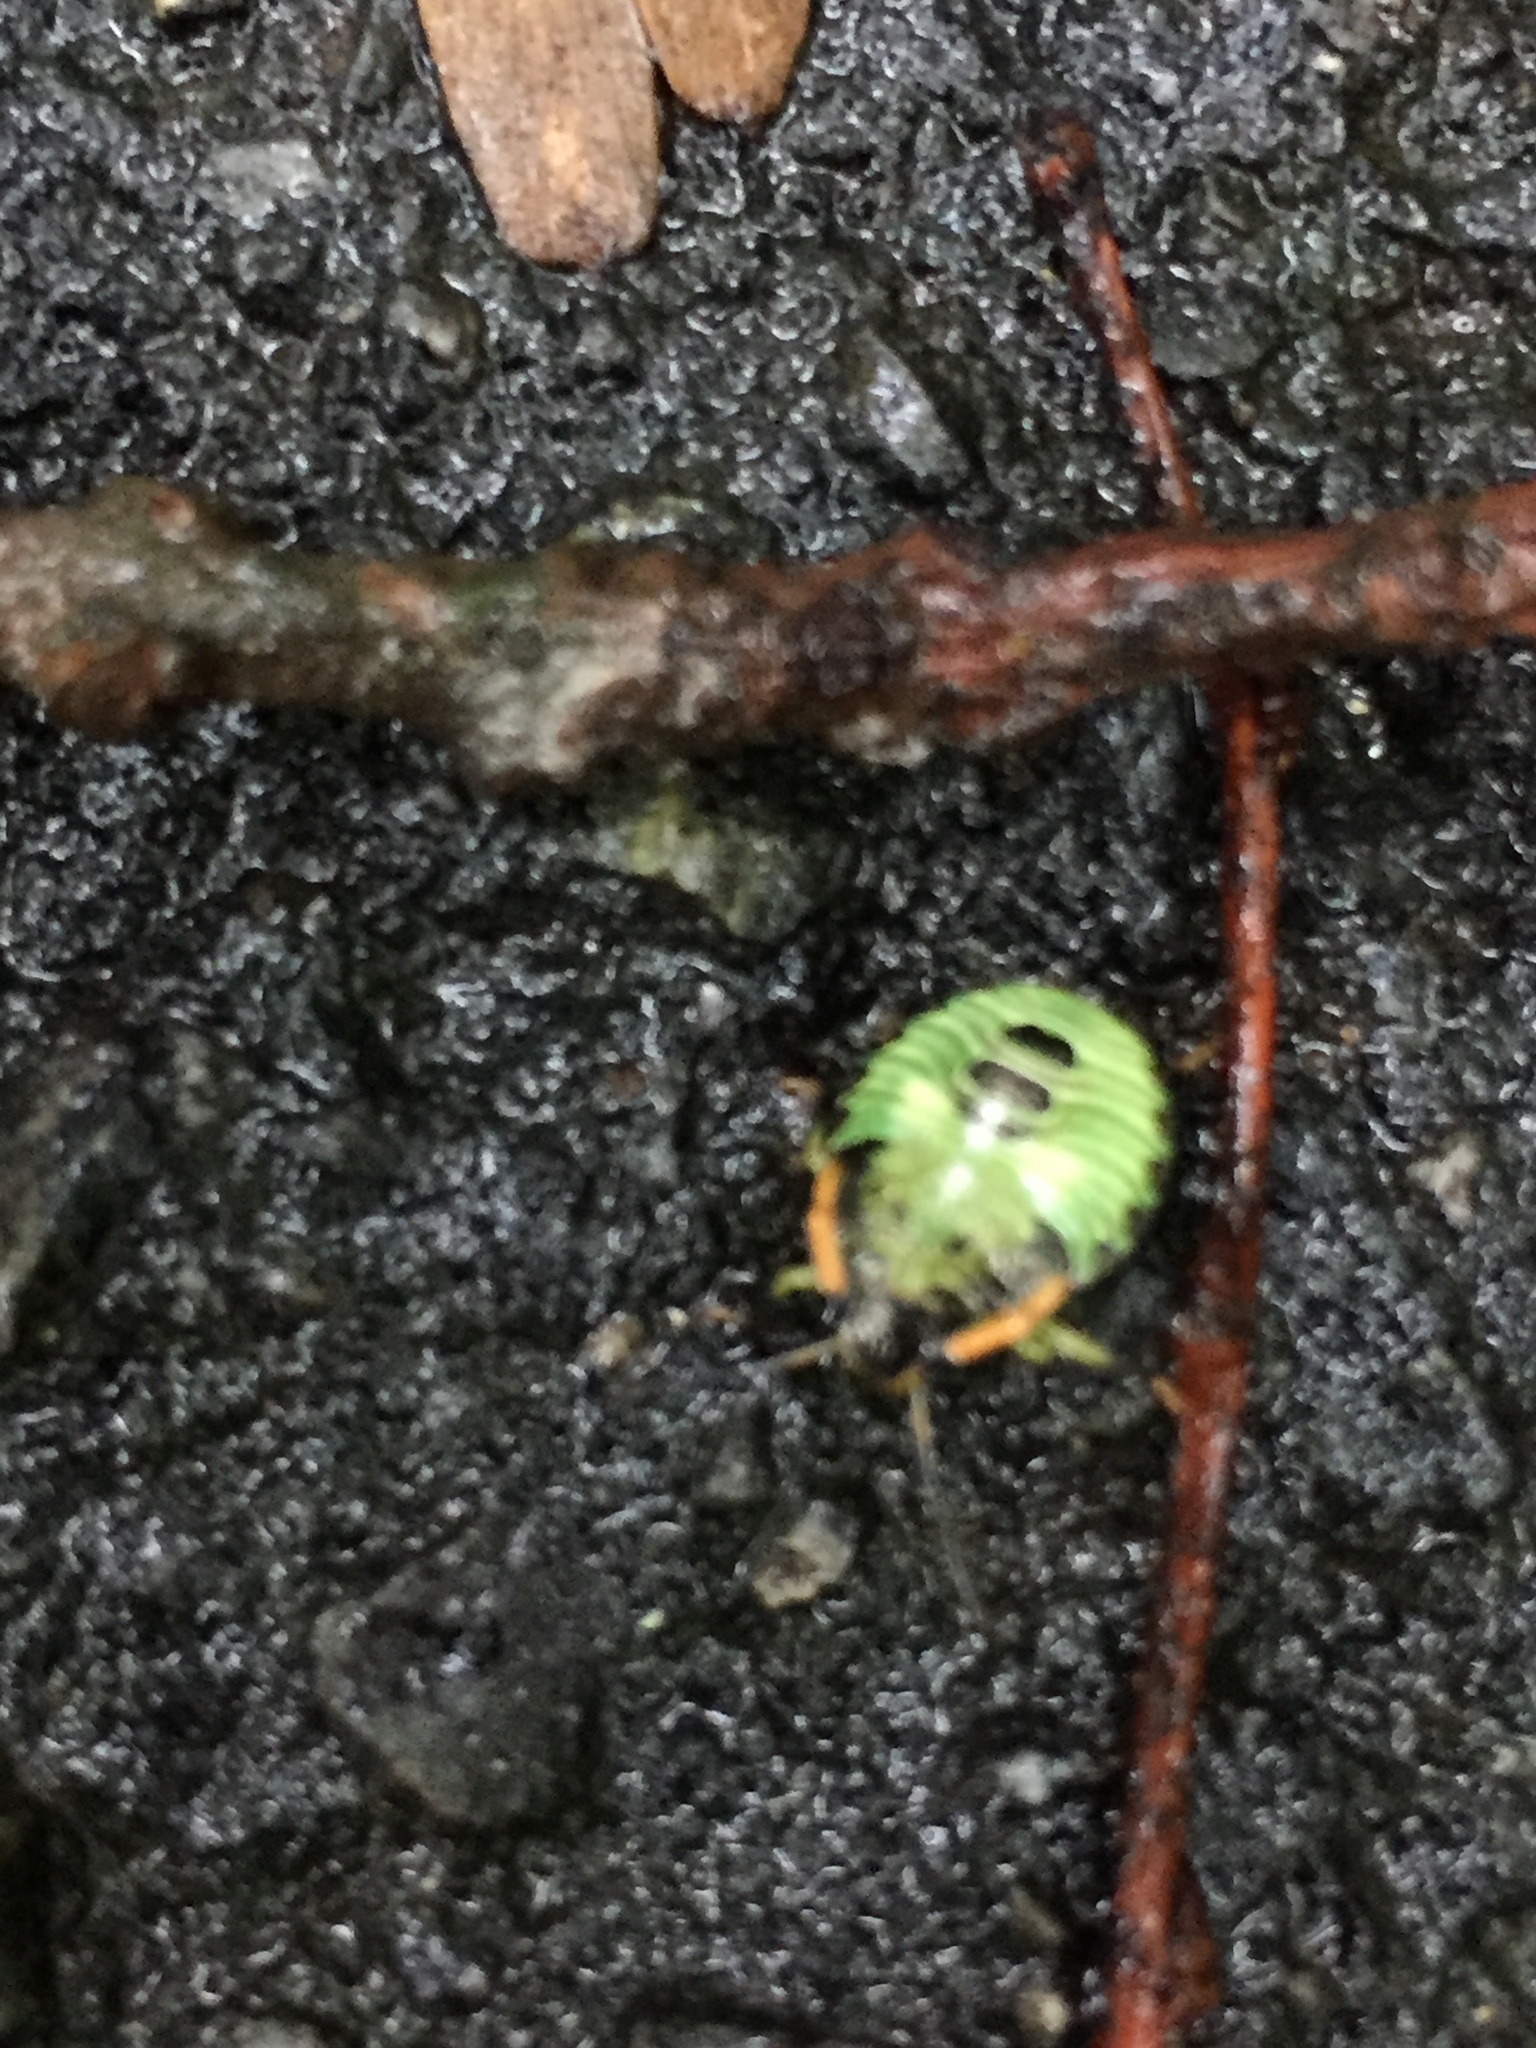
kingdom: Animalia
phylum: Arthropoda
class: Insecta
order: Hemiptera
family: Pentatomidae
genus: Chinavia
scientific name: Chinavia hilaris
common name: Green stink bug
